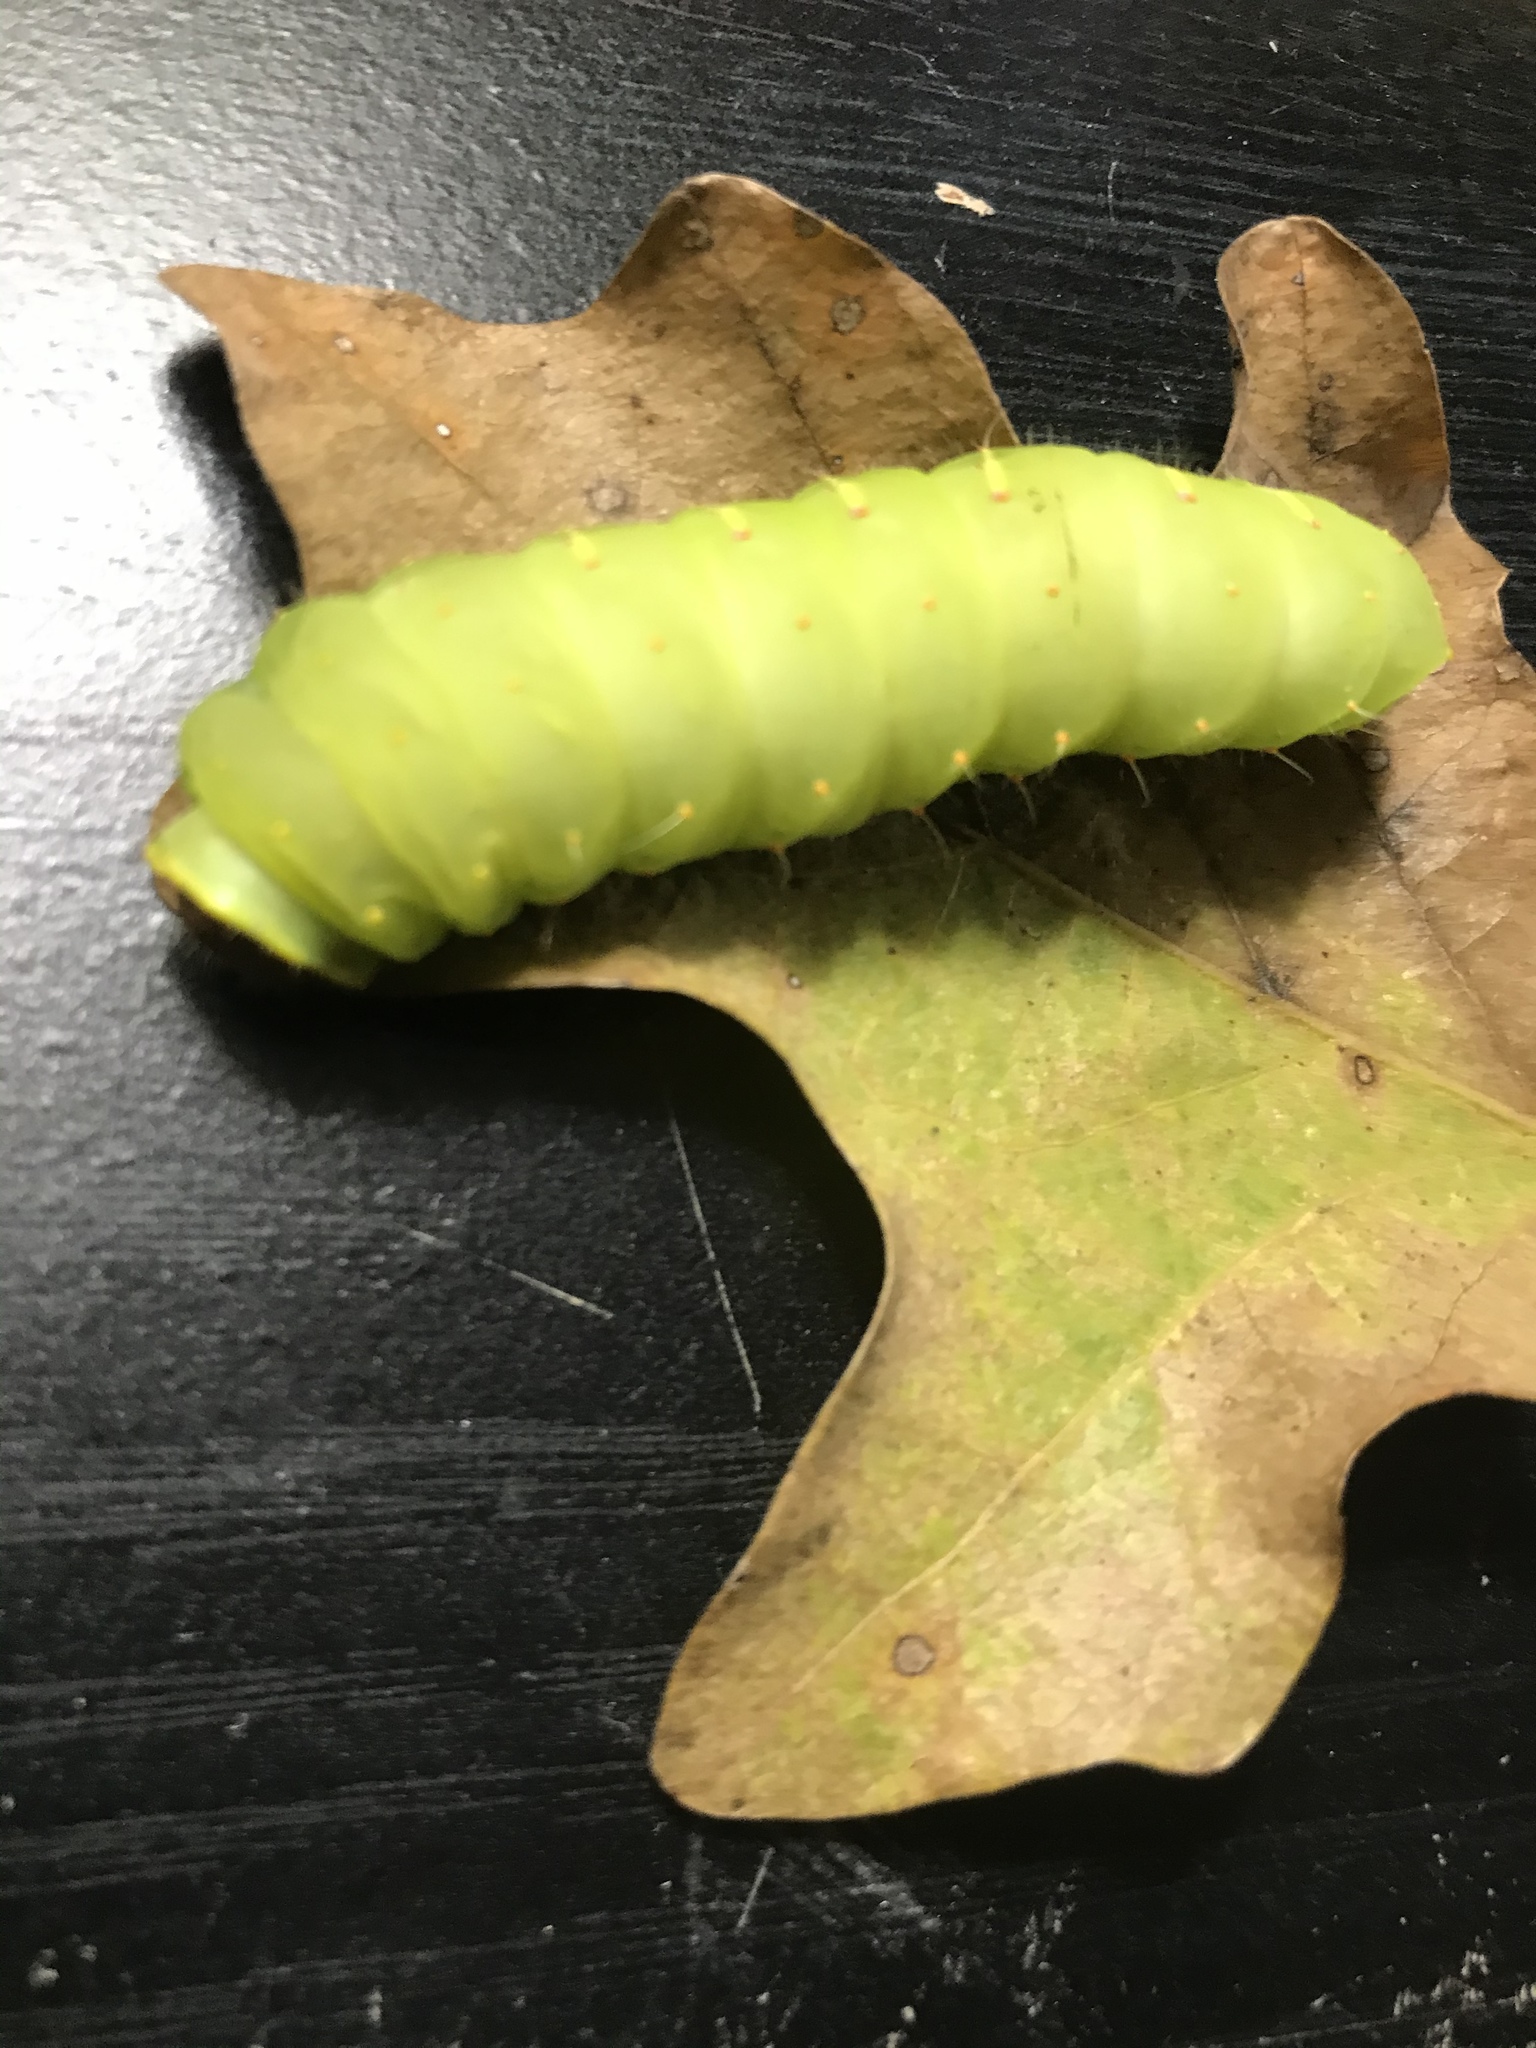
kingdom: Animalia
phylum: Arthropoda
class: Insecta
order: Lepidoptera
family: Saturniidae
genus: Antheraea
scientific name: Antheraea polyphemus
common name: Polyphemus moth
